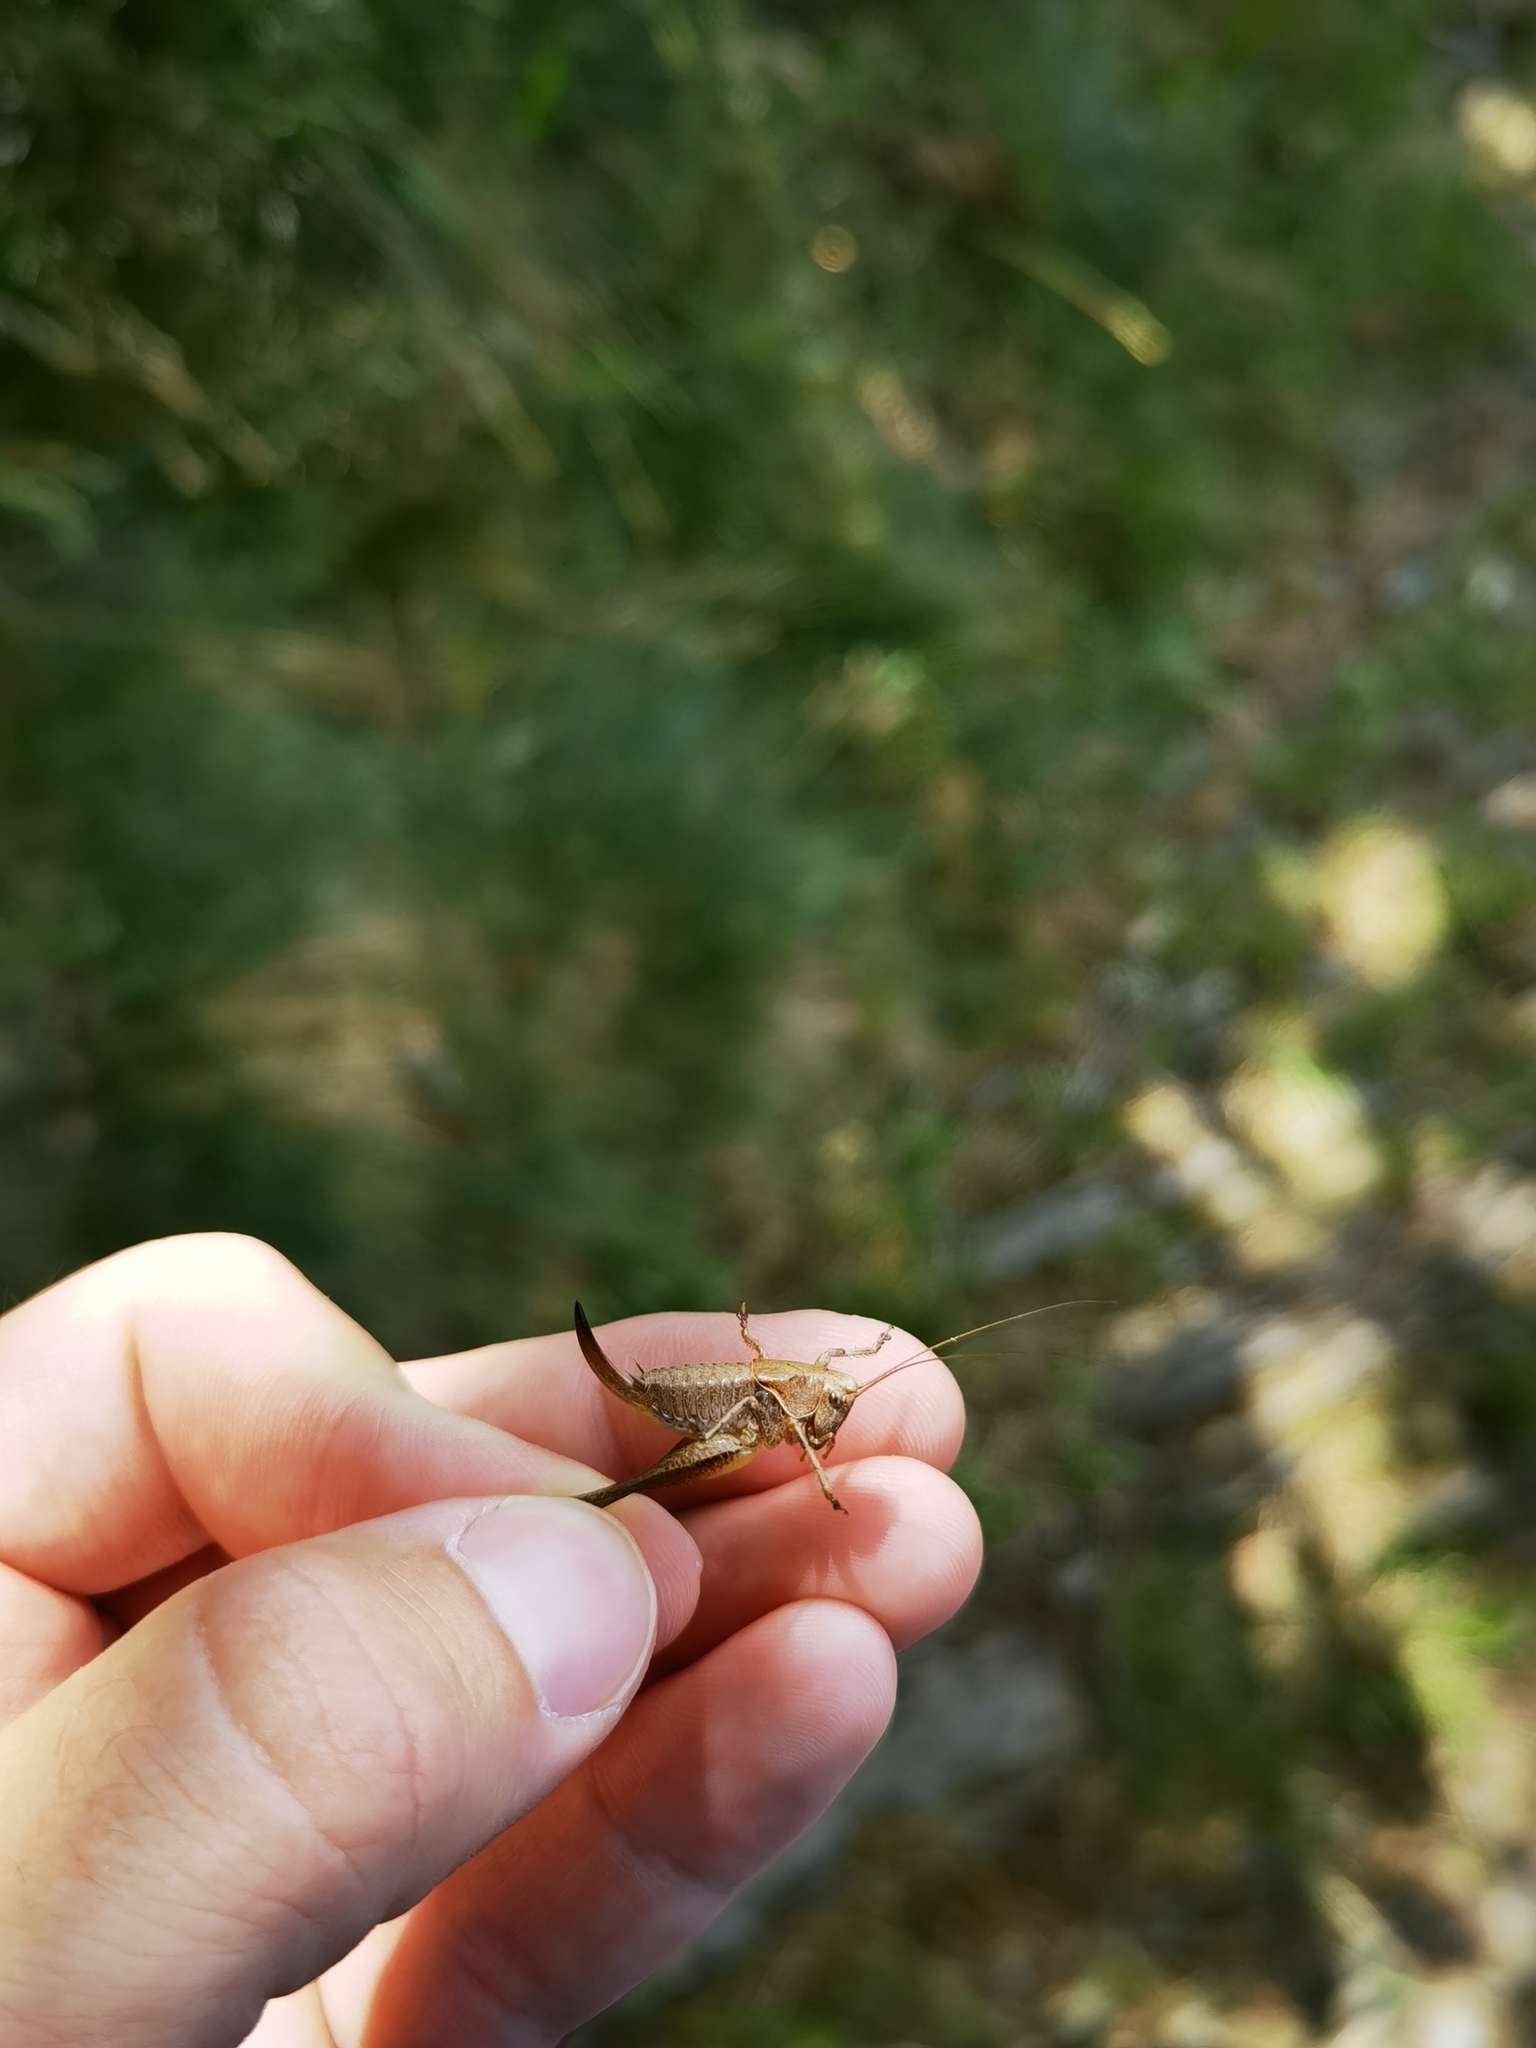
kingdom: Animalia
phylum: Arthropoda
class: Insecta
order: Orthoptera
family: Tettigoniidae
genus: Pholidoptera
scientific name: Pholidoptera griseoaptera
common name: Dark bush-cricket
